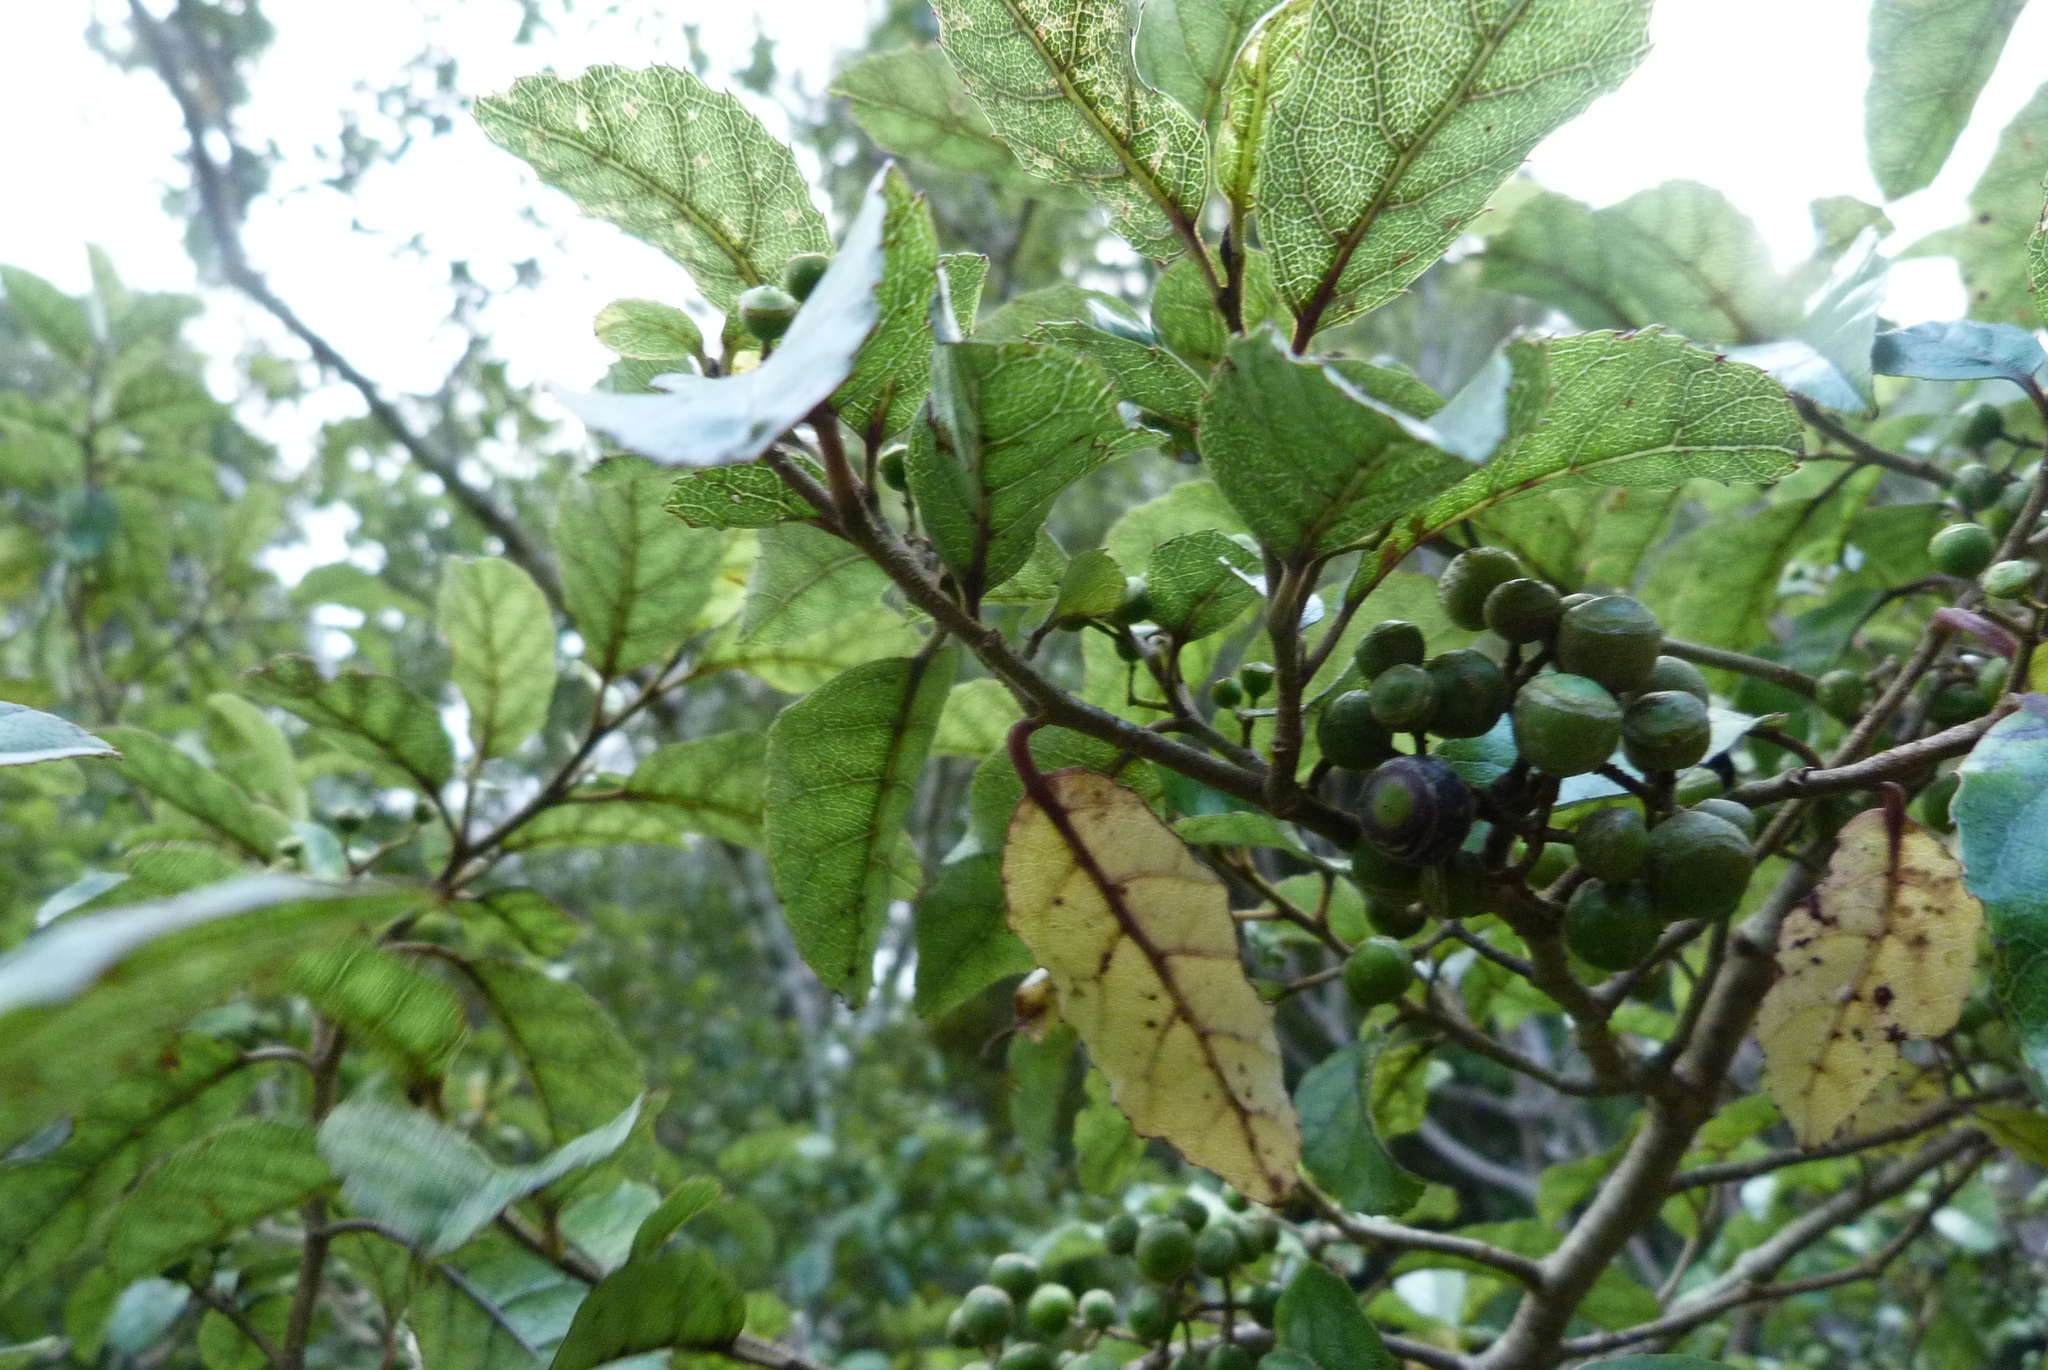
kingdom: Plantae
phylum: Tracheophyta
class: Magnoliopsida
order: Asterales
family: Rousseaceae
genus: Carpodetus
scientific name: Carpodetus serratus
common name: White mapau
